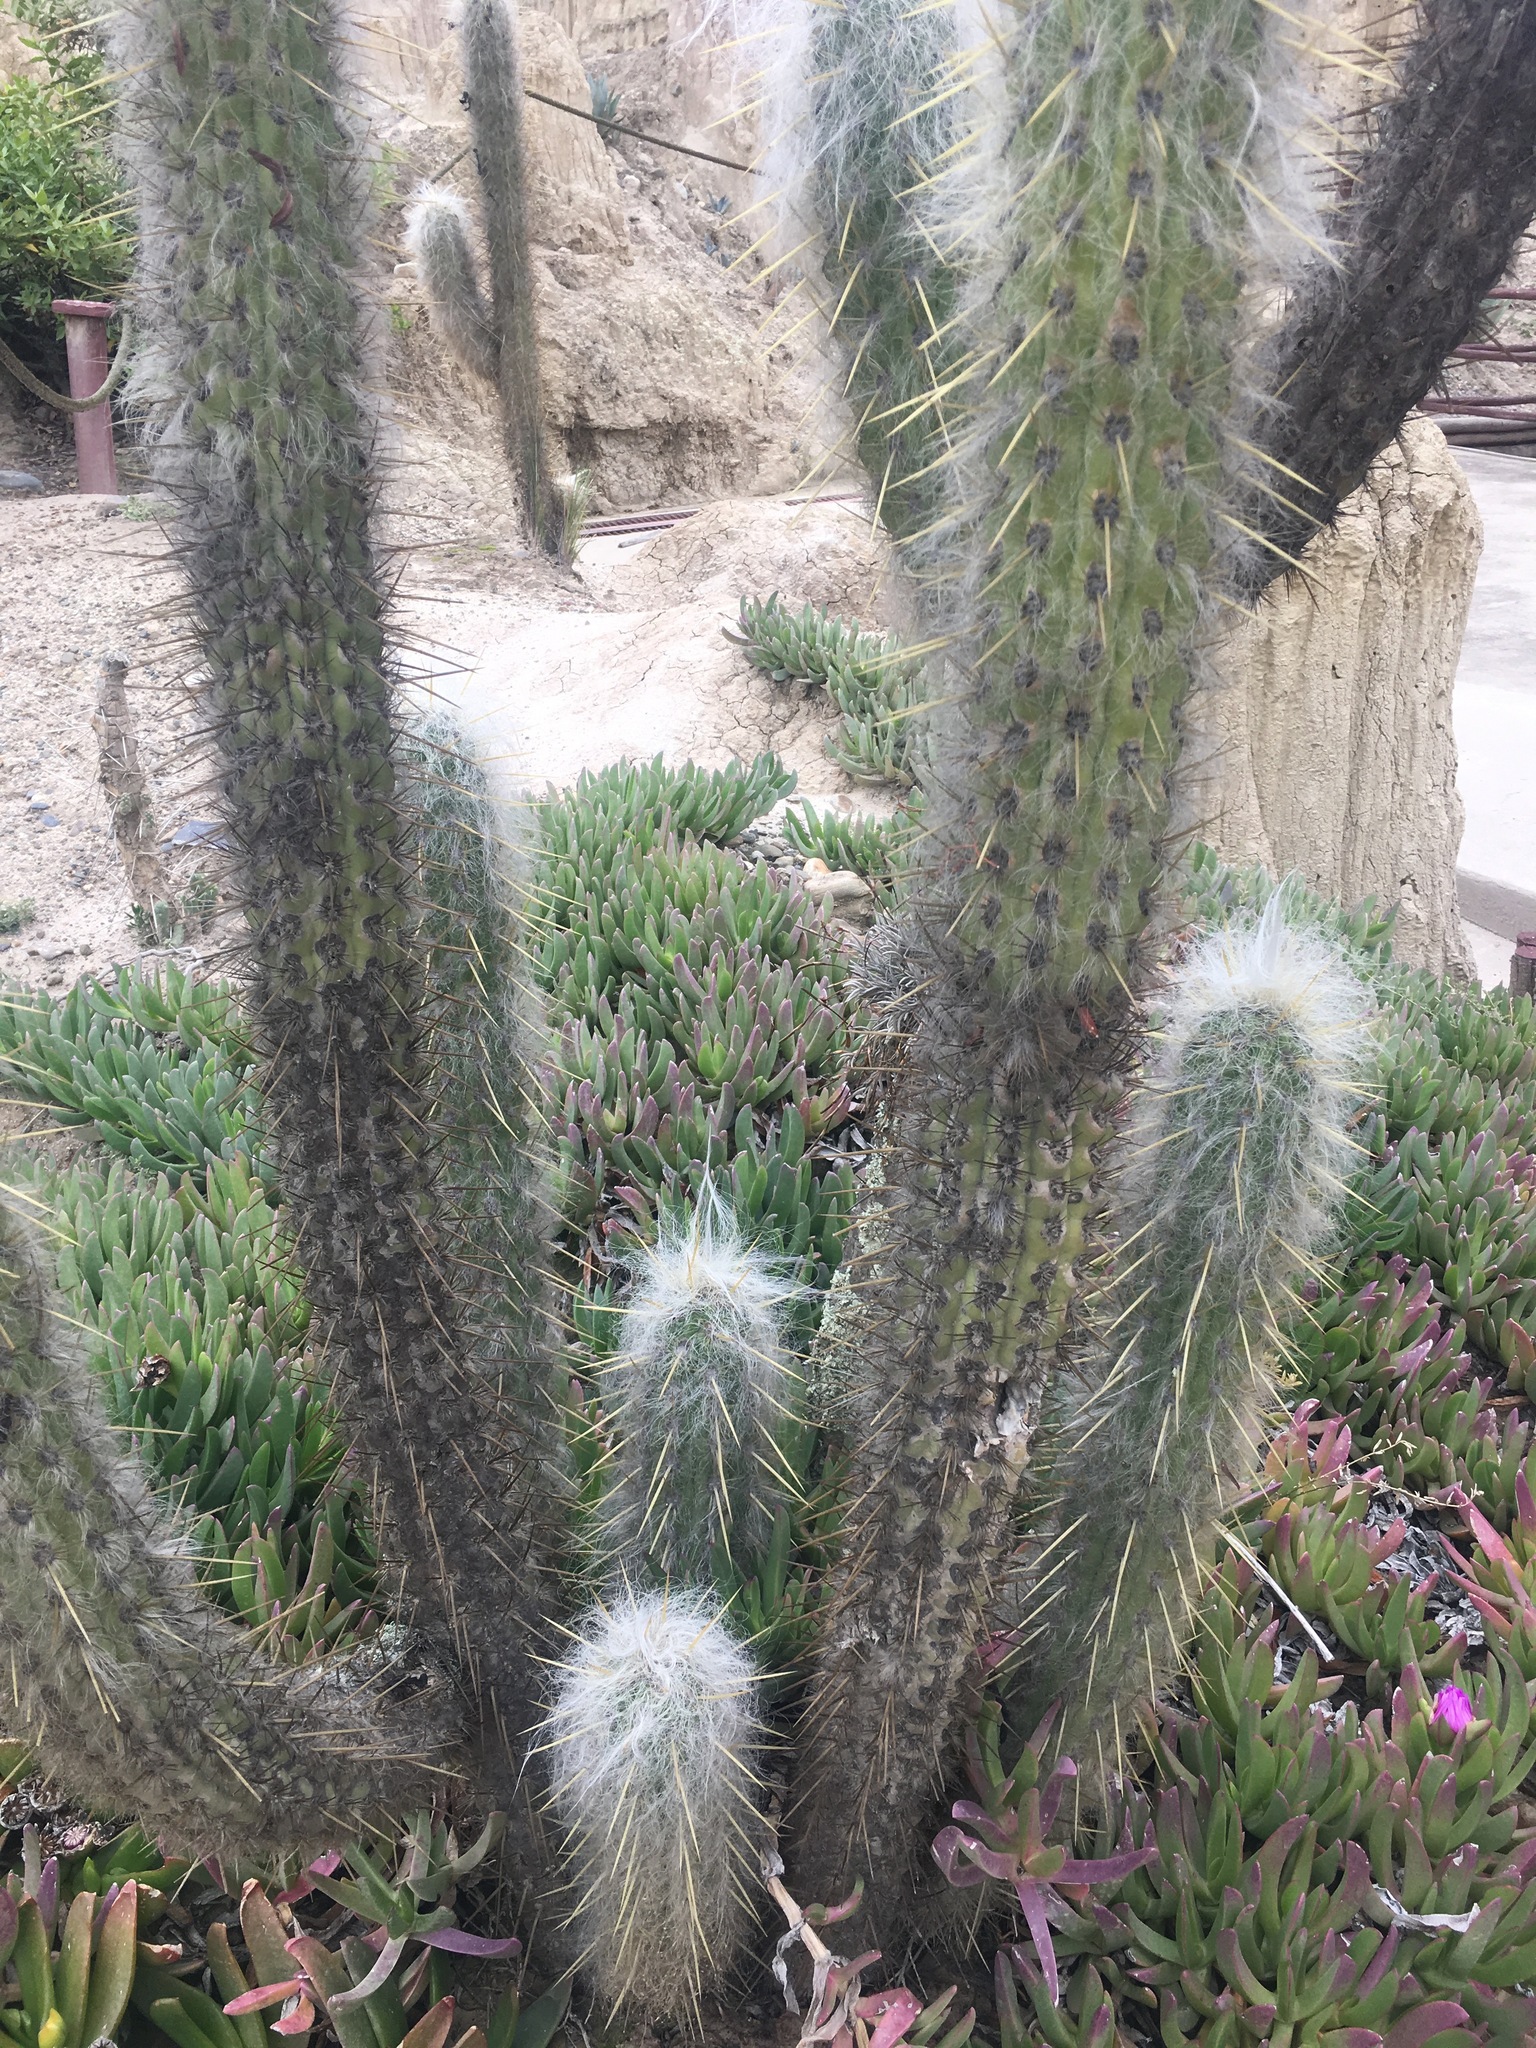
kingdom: Plantae
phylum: Tracheophyta
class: Magnoliopsida
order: Caryophyllales
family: Cactaceae
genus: Oreocereus
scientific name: Oreocereus pseudofossulatus
